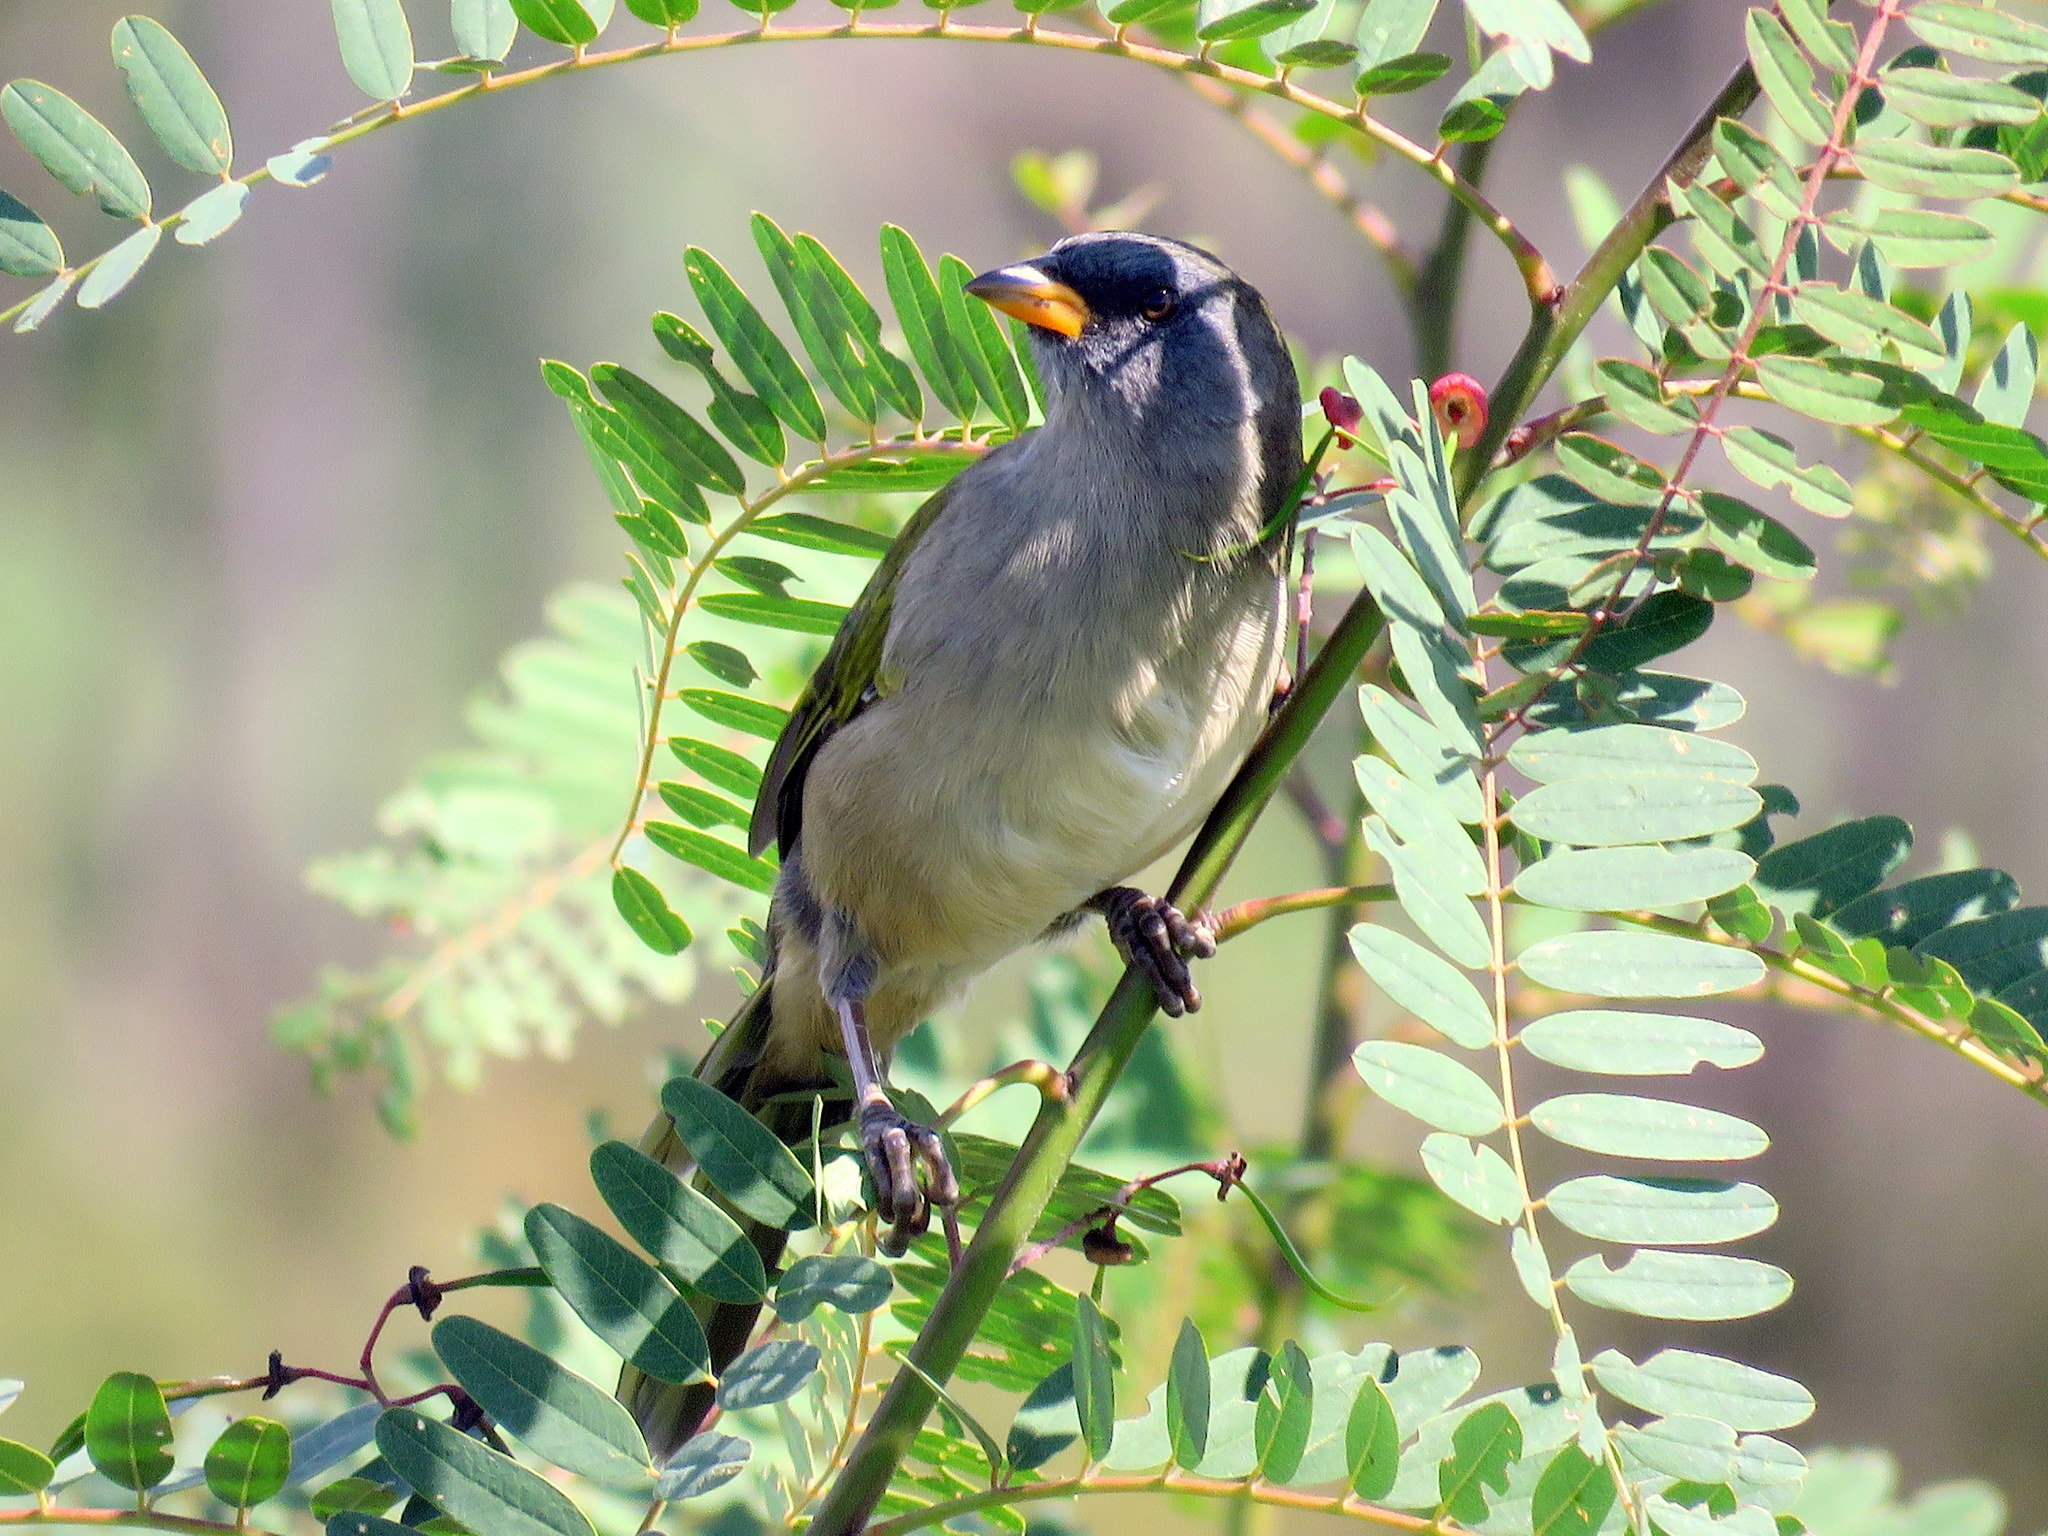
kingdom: Animalia
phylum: Chordata
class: Aves
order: Passeriformes
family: Thraupidae
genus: Embernagra
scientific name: Embernagra platensis
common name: Pampa finch
